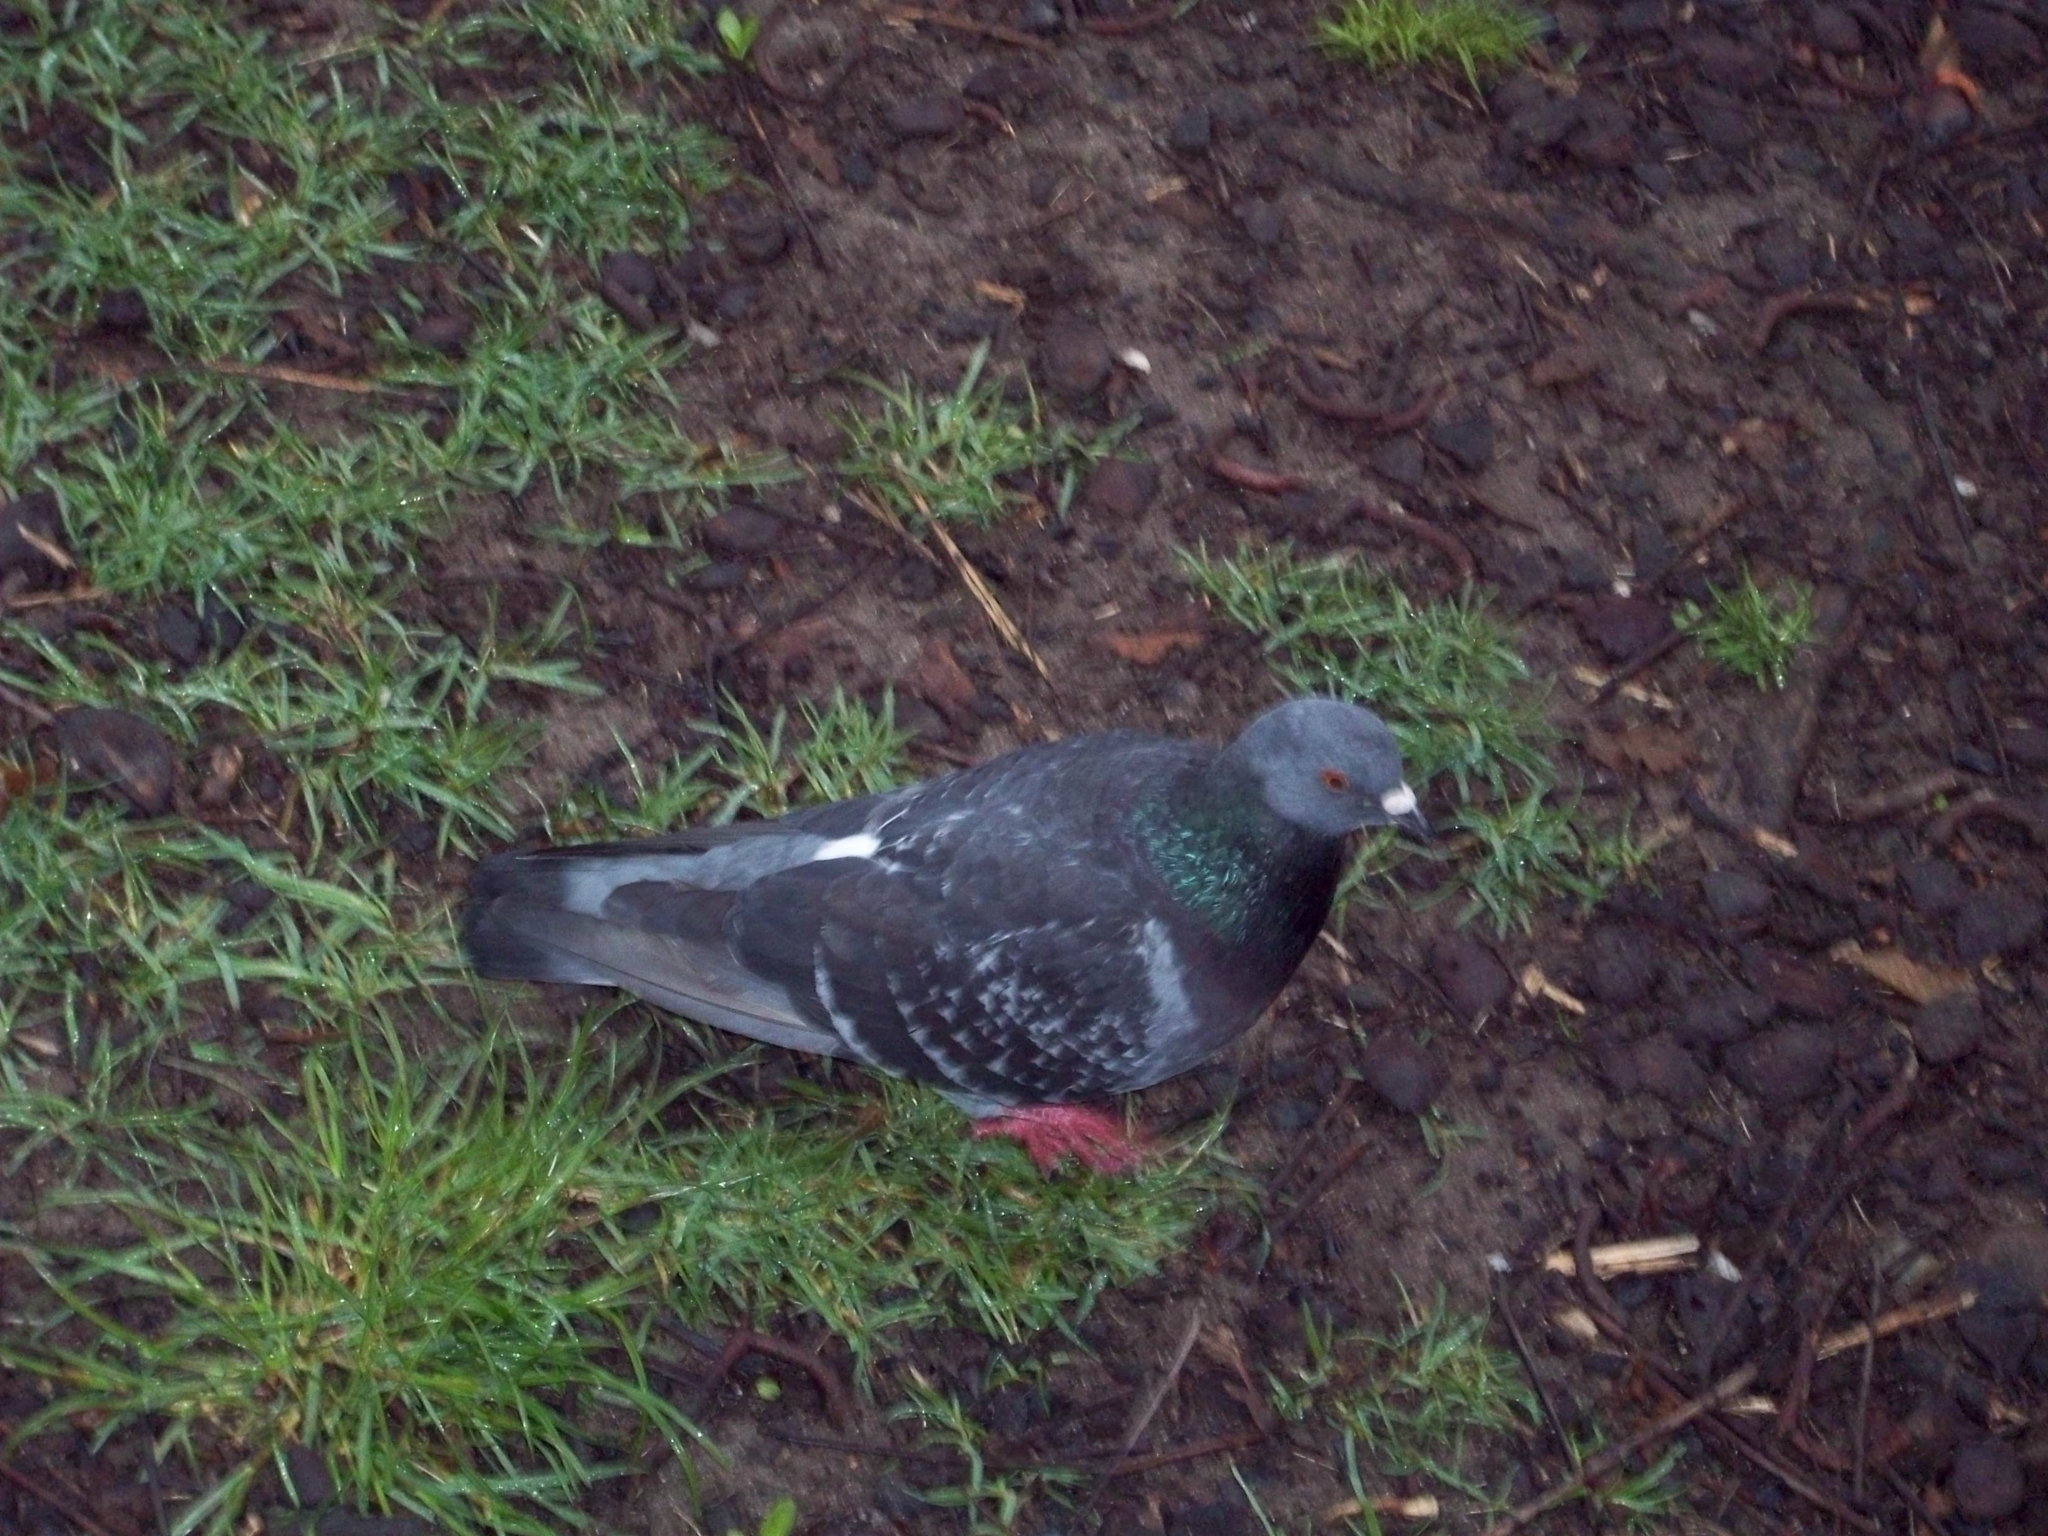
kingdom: Animalia
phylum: Chordata
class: Aves
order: Columbiformes
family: Columbidae
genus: Columba
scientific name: Columba livia
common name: Rock pigeon
